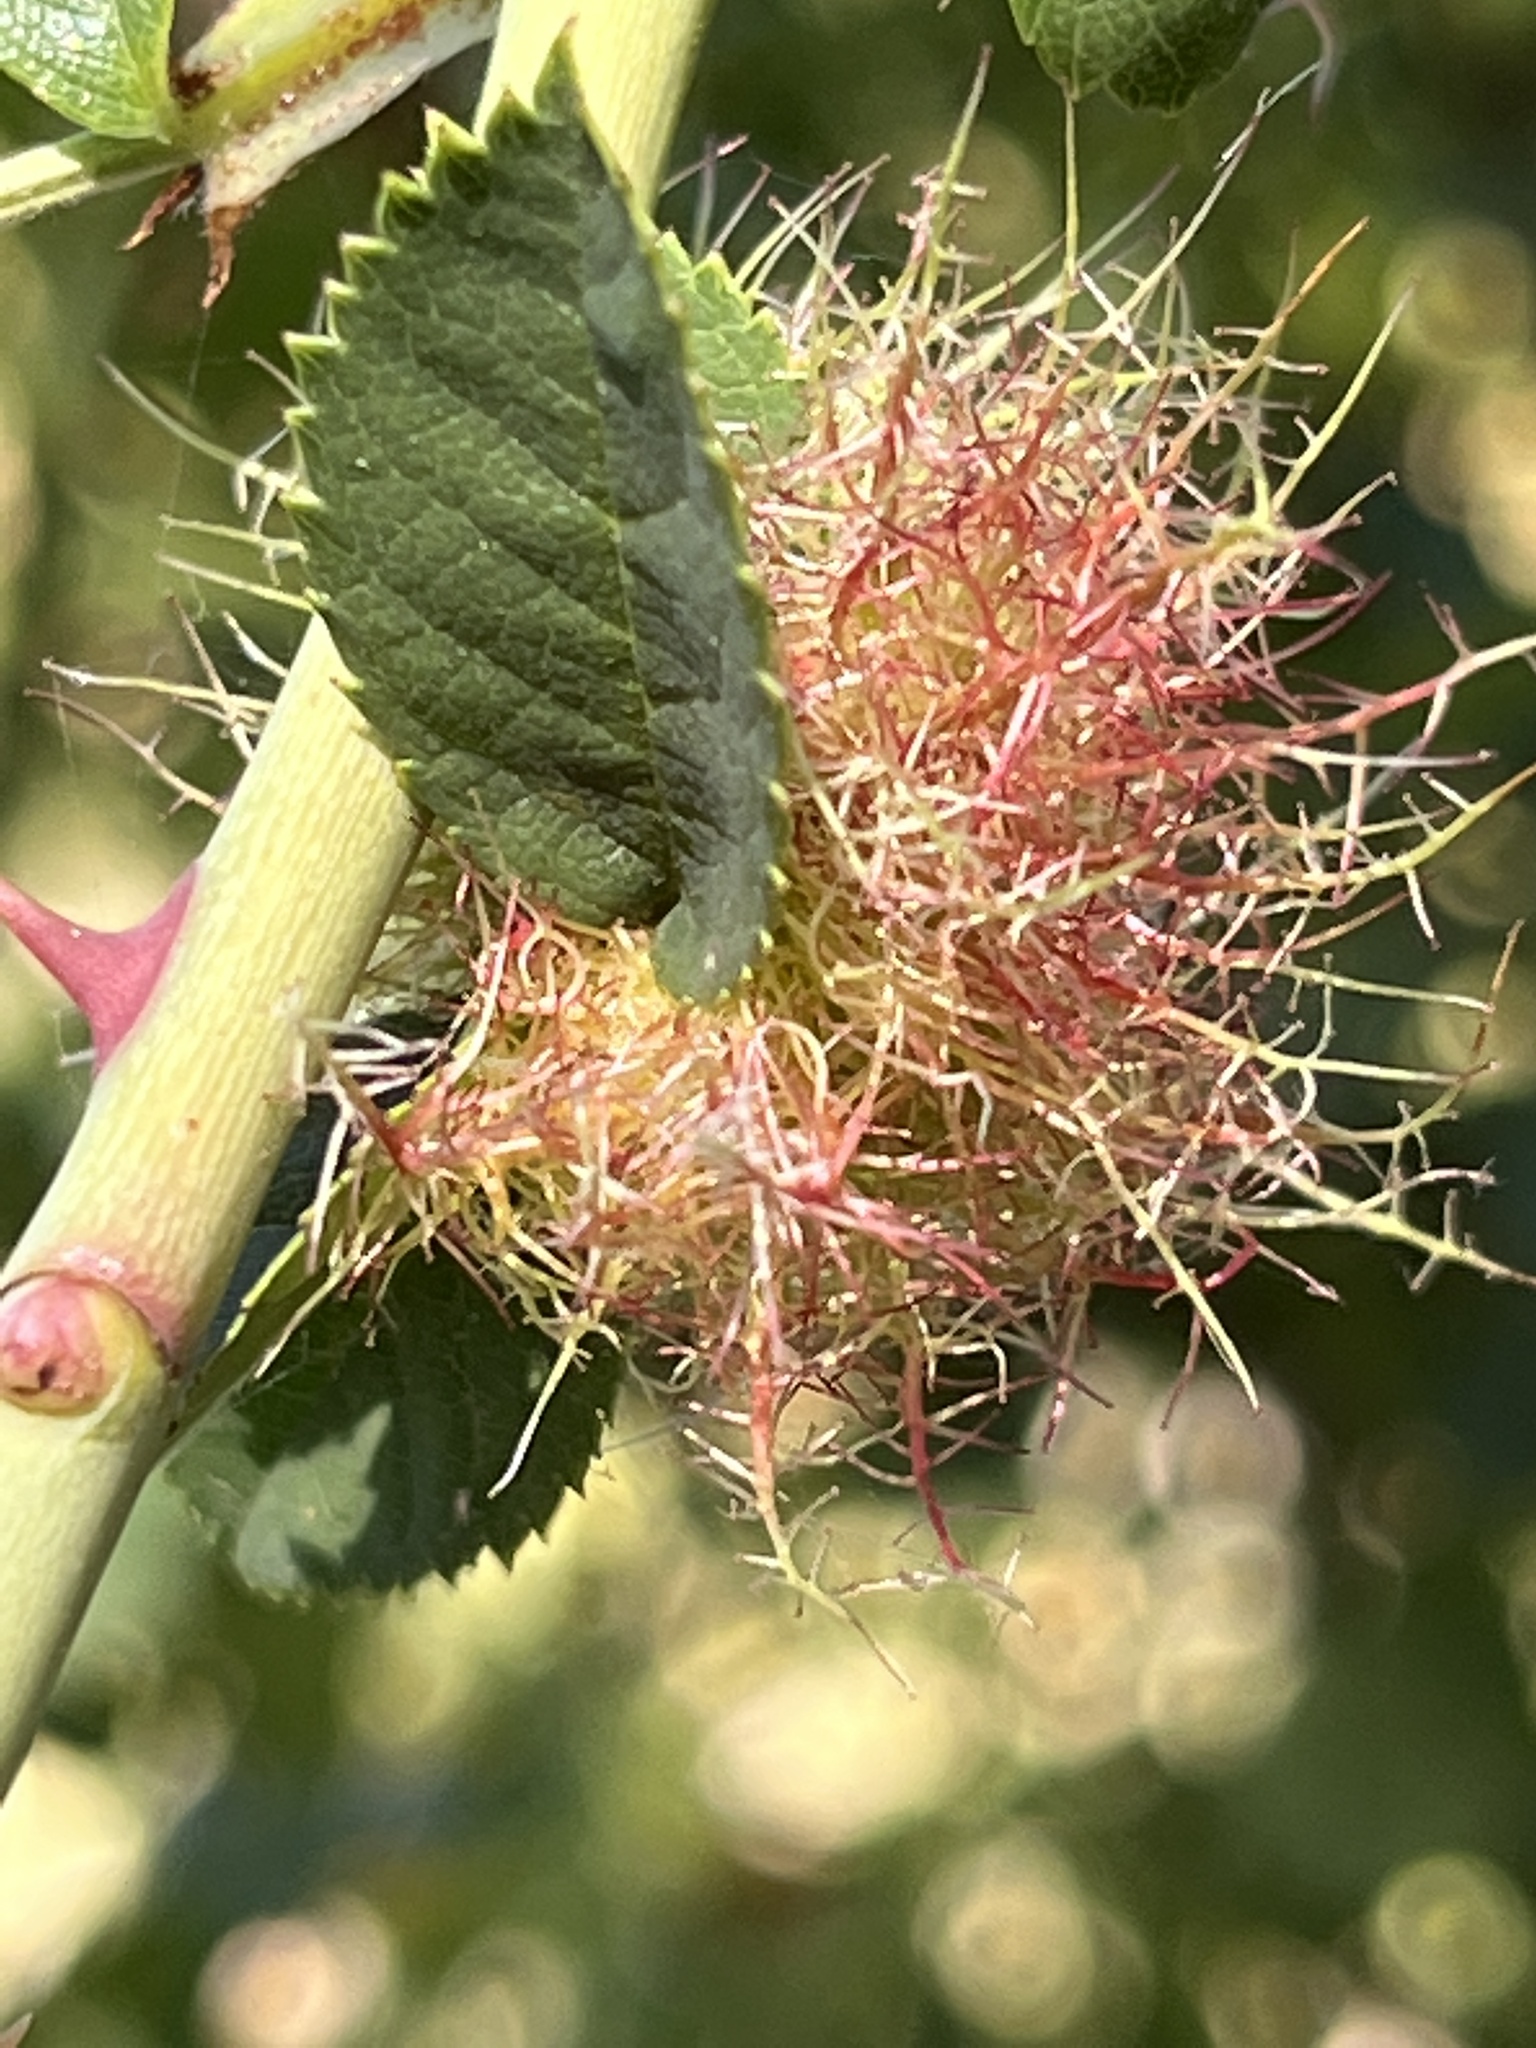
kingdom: Animalia
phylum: Arthropoda
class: Insecta
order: Hymenoptera
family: Cynipidae
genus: Diplolepis
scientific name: Diplolepis rosae
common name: Bedeguar gall
